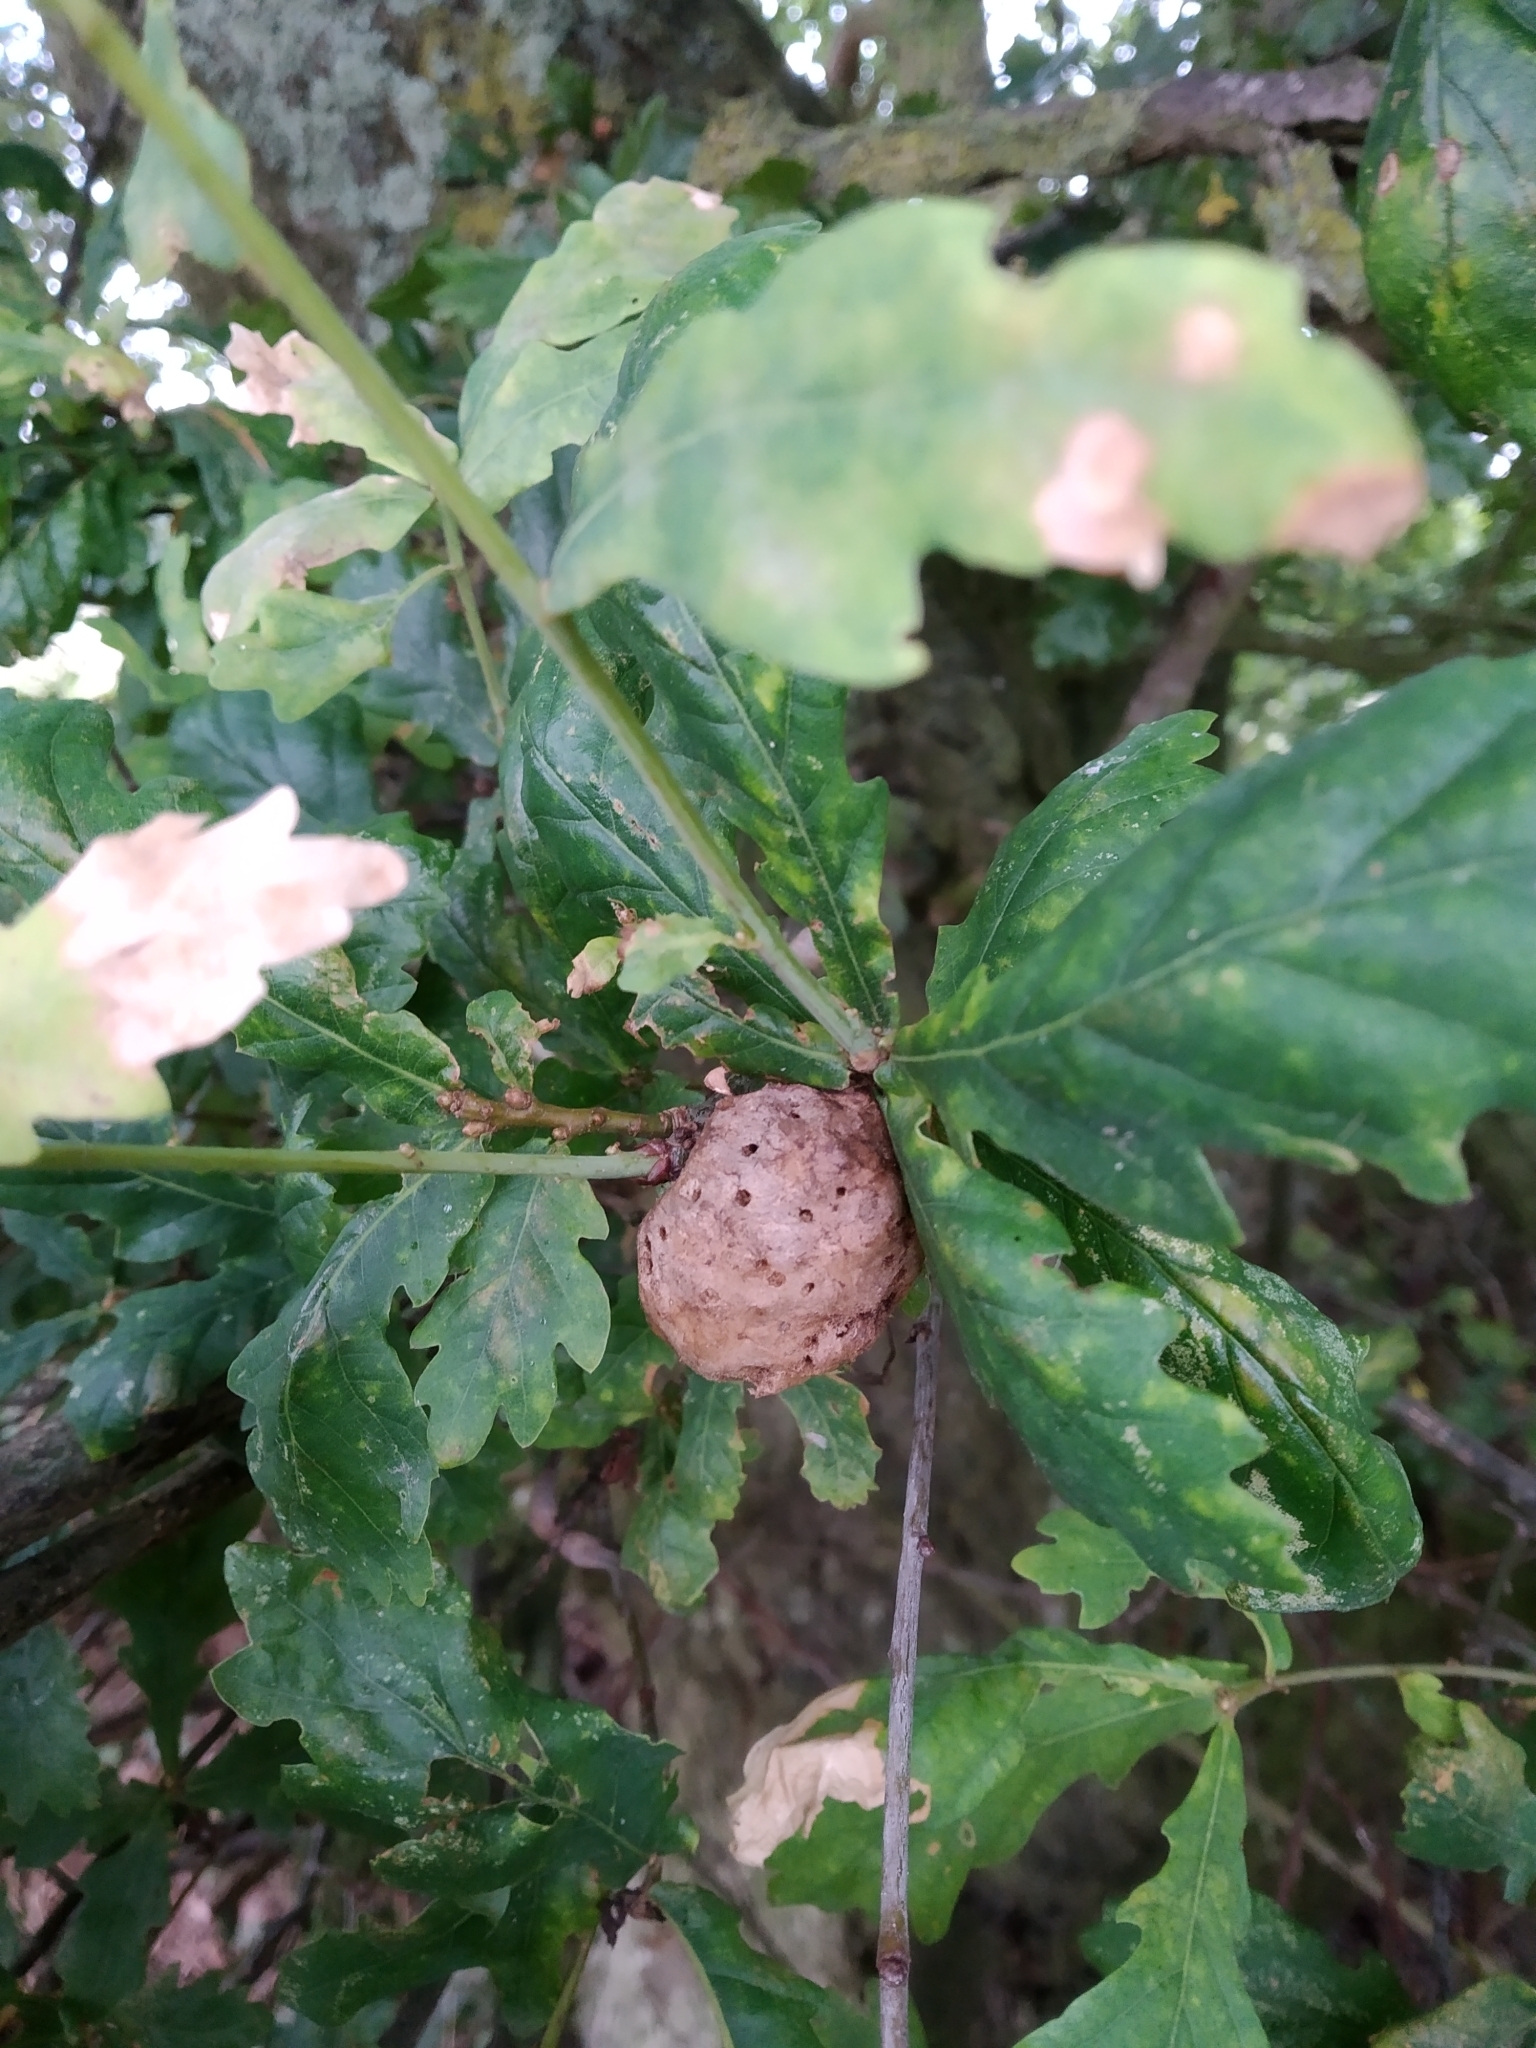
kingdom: Animalia
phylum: Arthropoda
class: Insecta
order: Hymenoptera
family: Cynipidae
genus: Biorhiza
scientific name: Biorhiza pallida
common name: Oak apple
